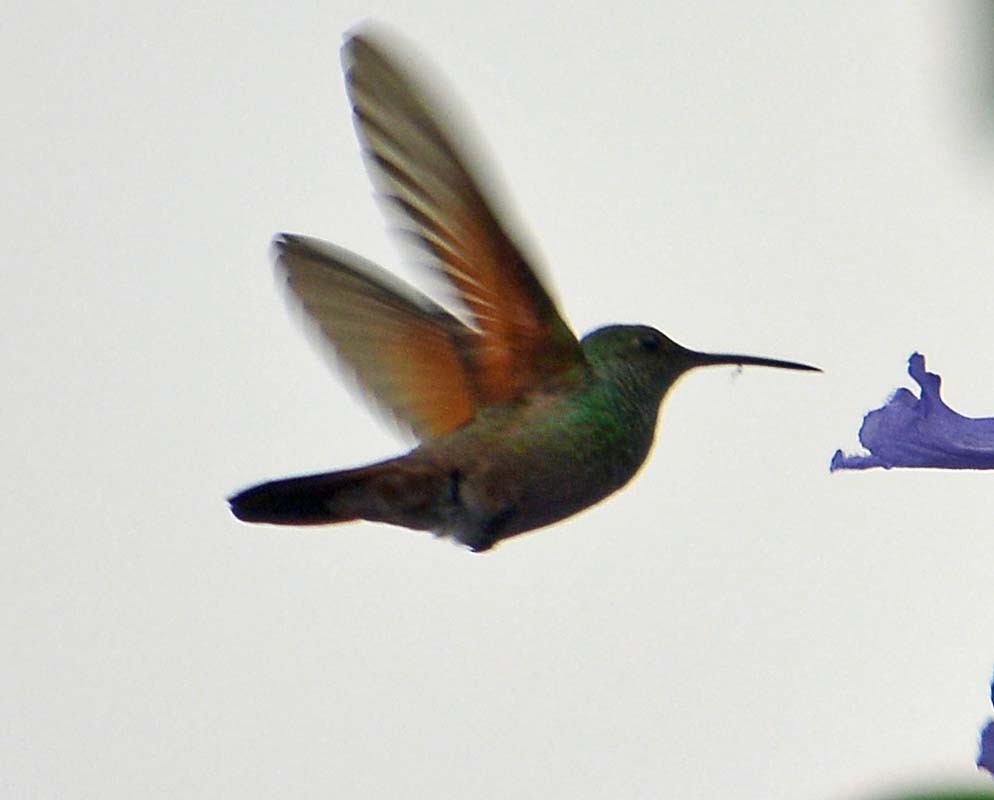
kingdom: Animalia
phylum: Chordata
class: Aves
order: Apodiformes
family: Trochilidae
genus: Saucerottia
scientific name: Saucerottia beryllina
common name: Berylline hummingbird
